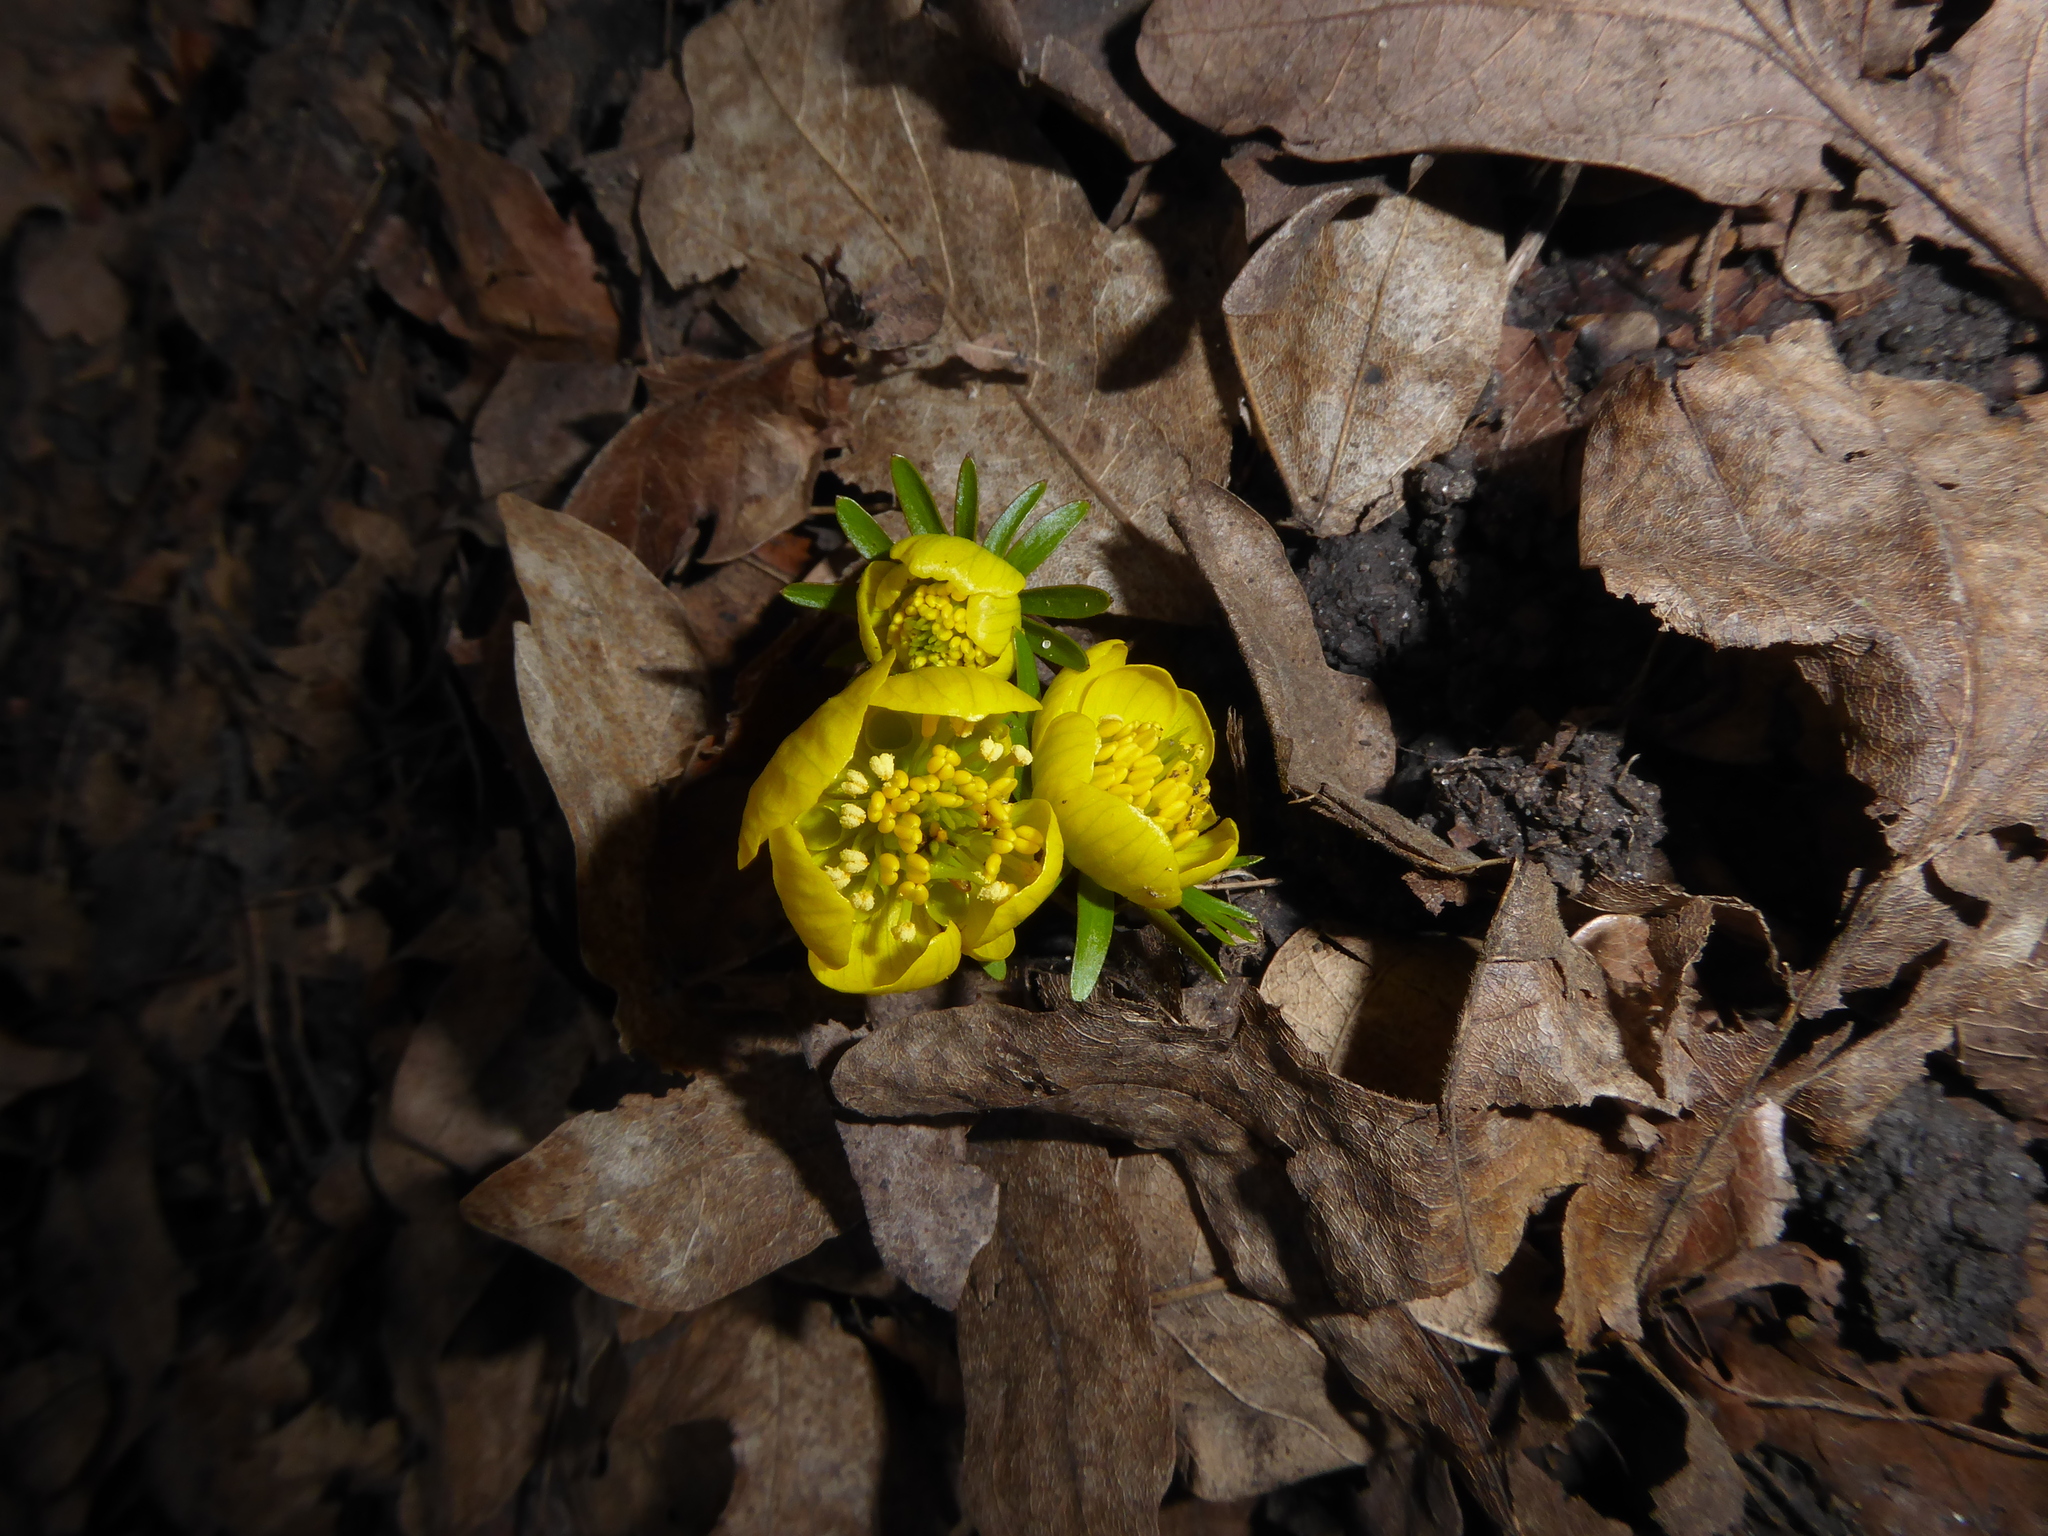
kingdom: Plantae
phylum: Tracheophyta
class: Magnoliopsida
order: Ranunculales
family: Ranunculaceae
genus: Eranthis
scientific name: Eranthis hyemalis
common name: Winter aconite
